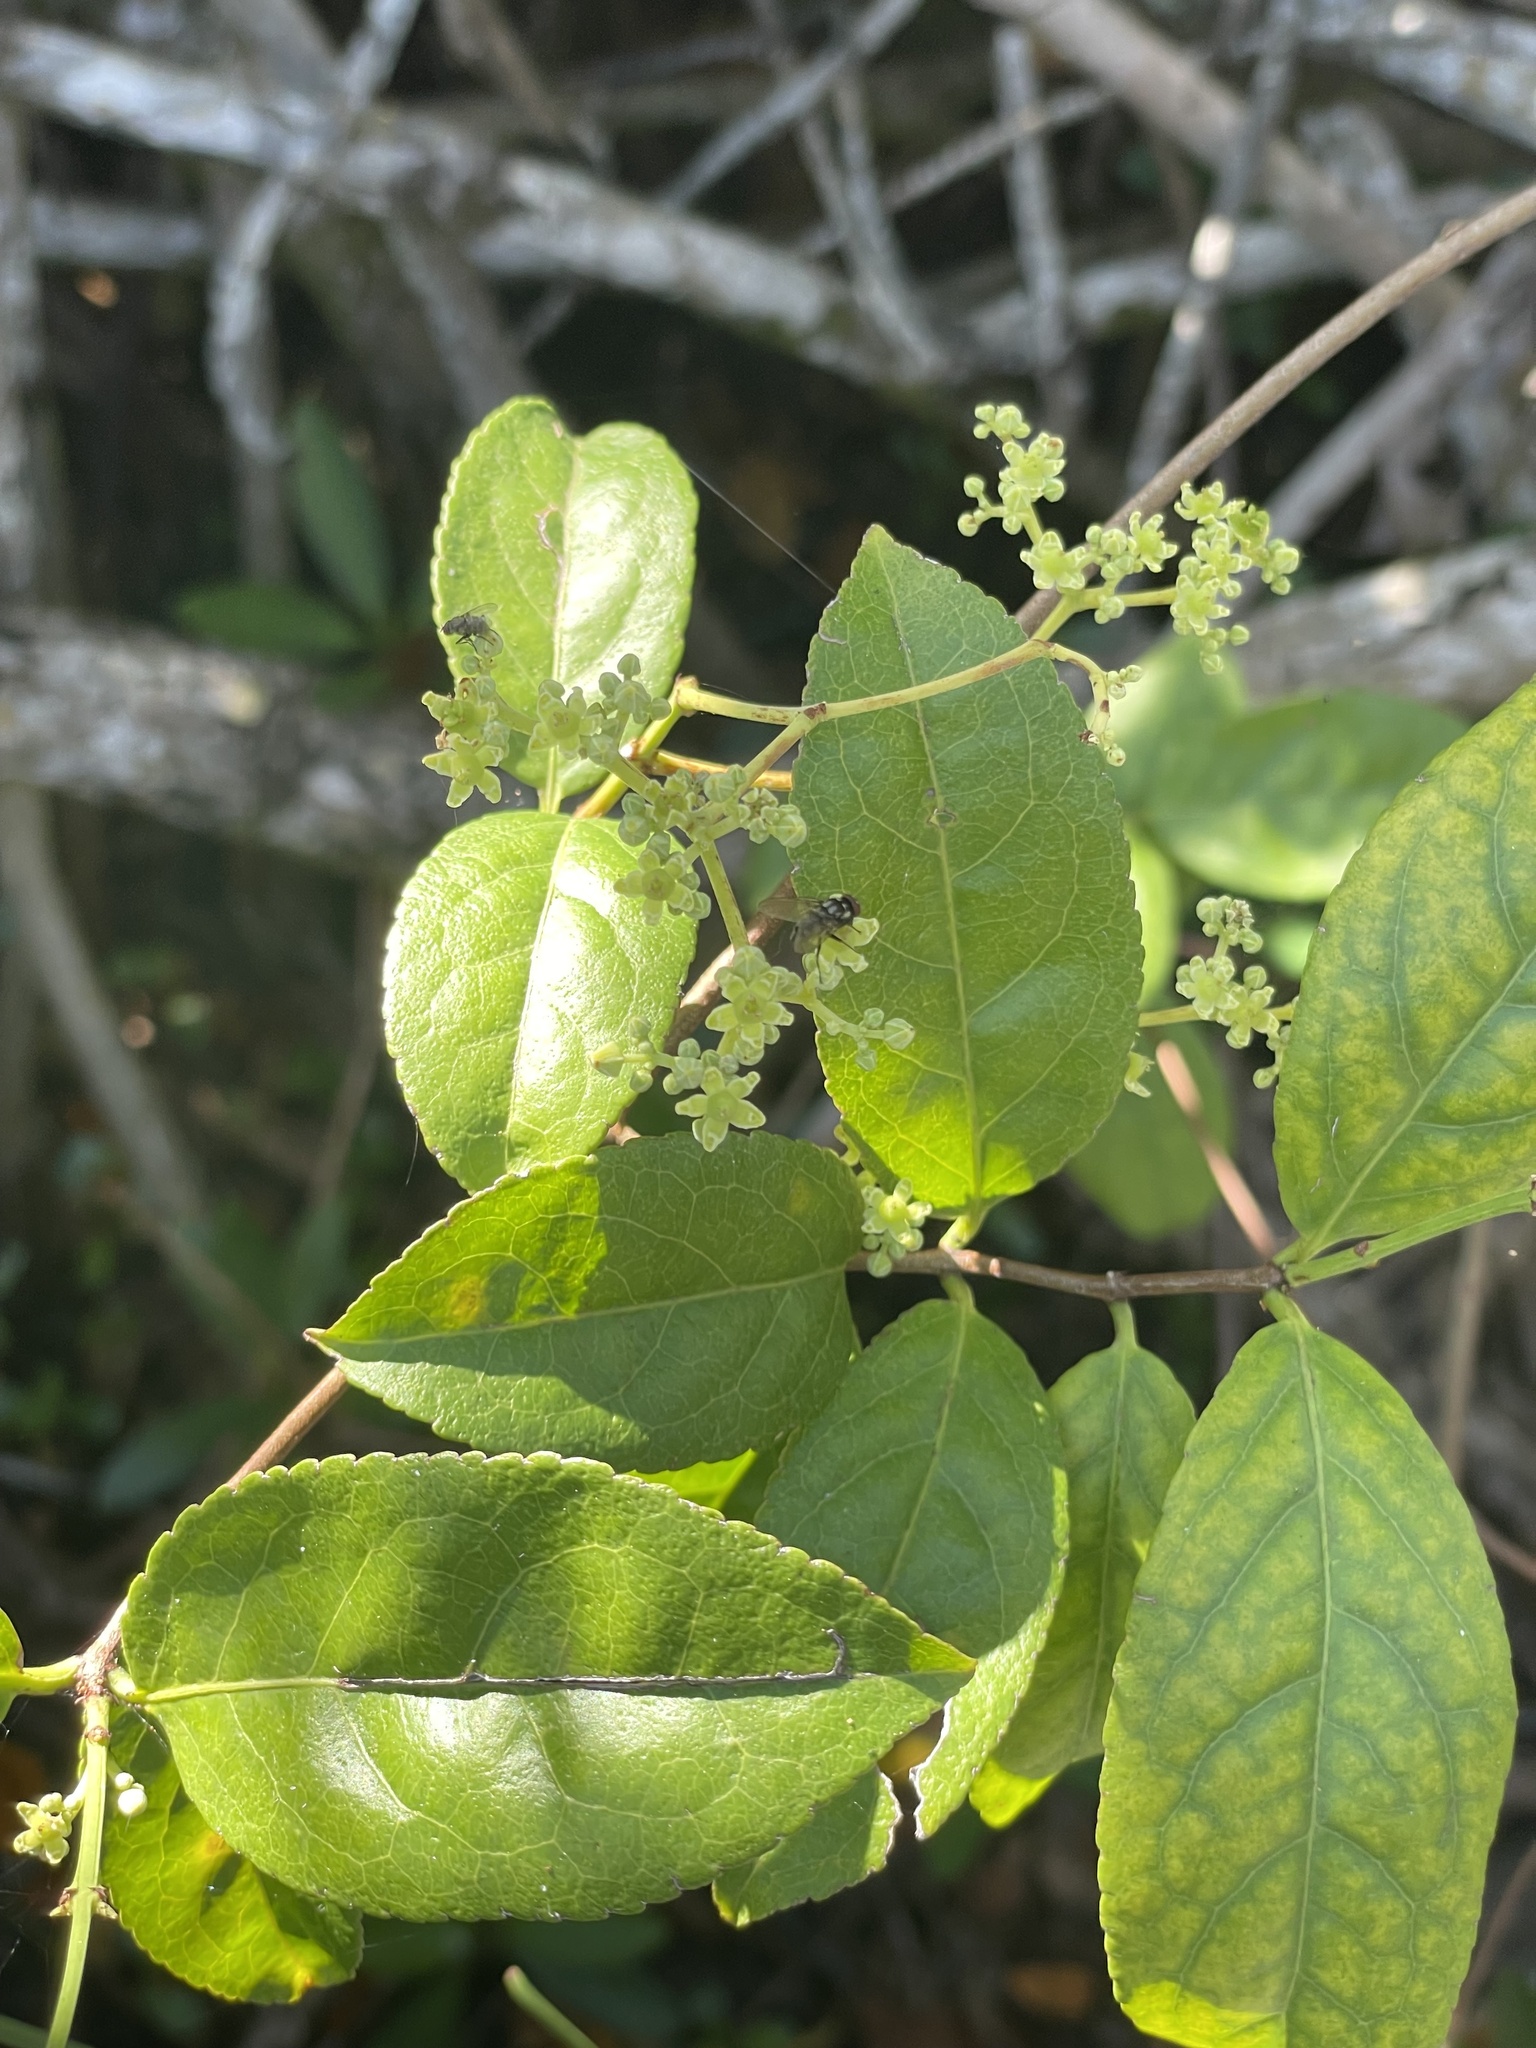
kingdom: Plantae
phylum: Tracheophyta
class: Magnoliopsida
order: Celastrales
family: Celastraceae
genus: Hippocratea
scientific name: Hippocratea volubilis
